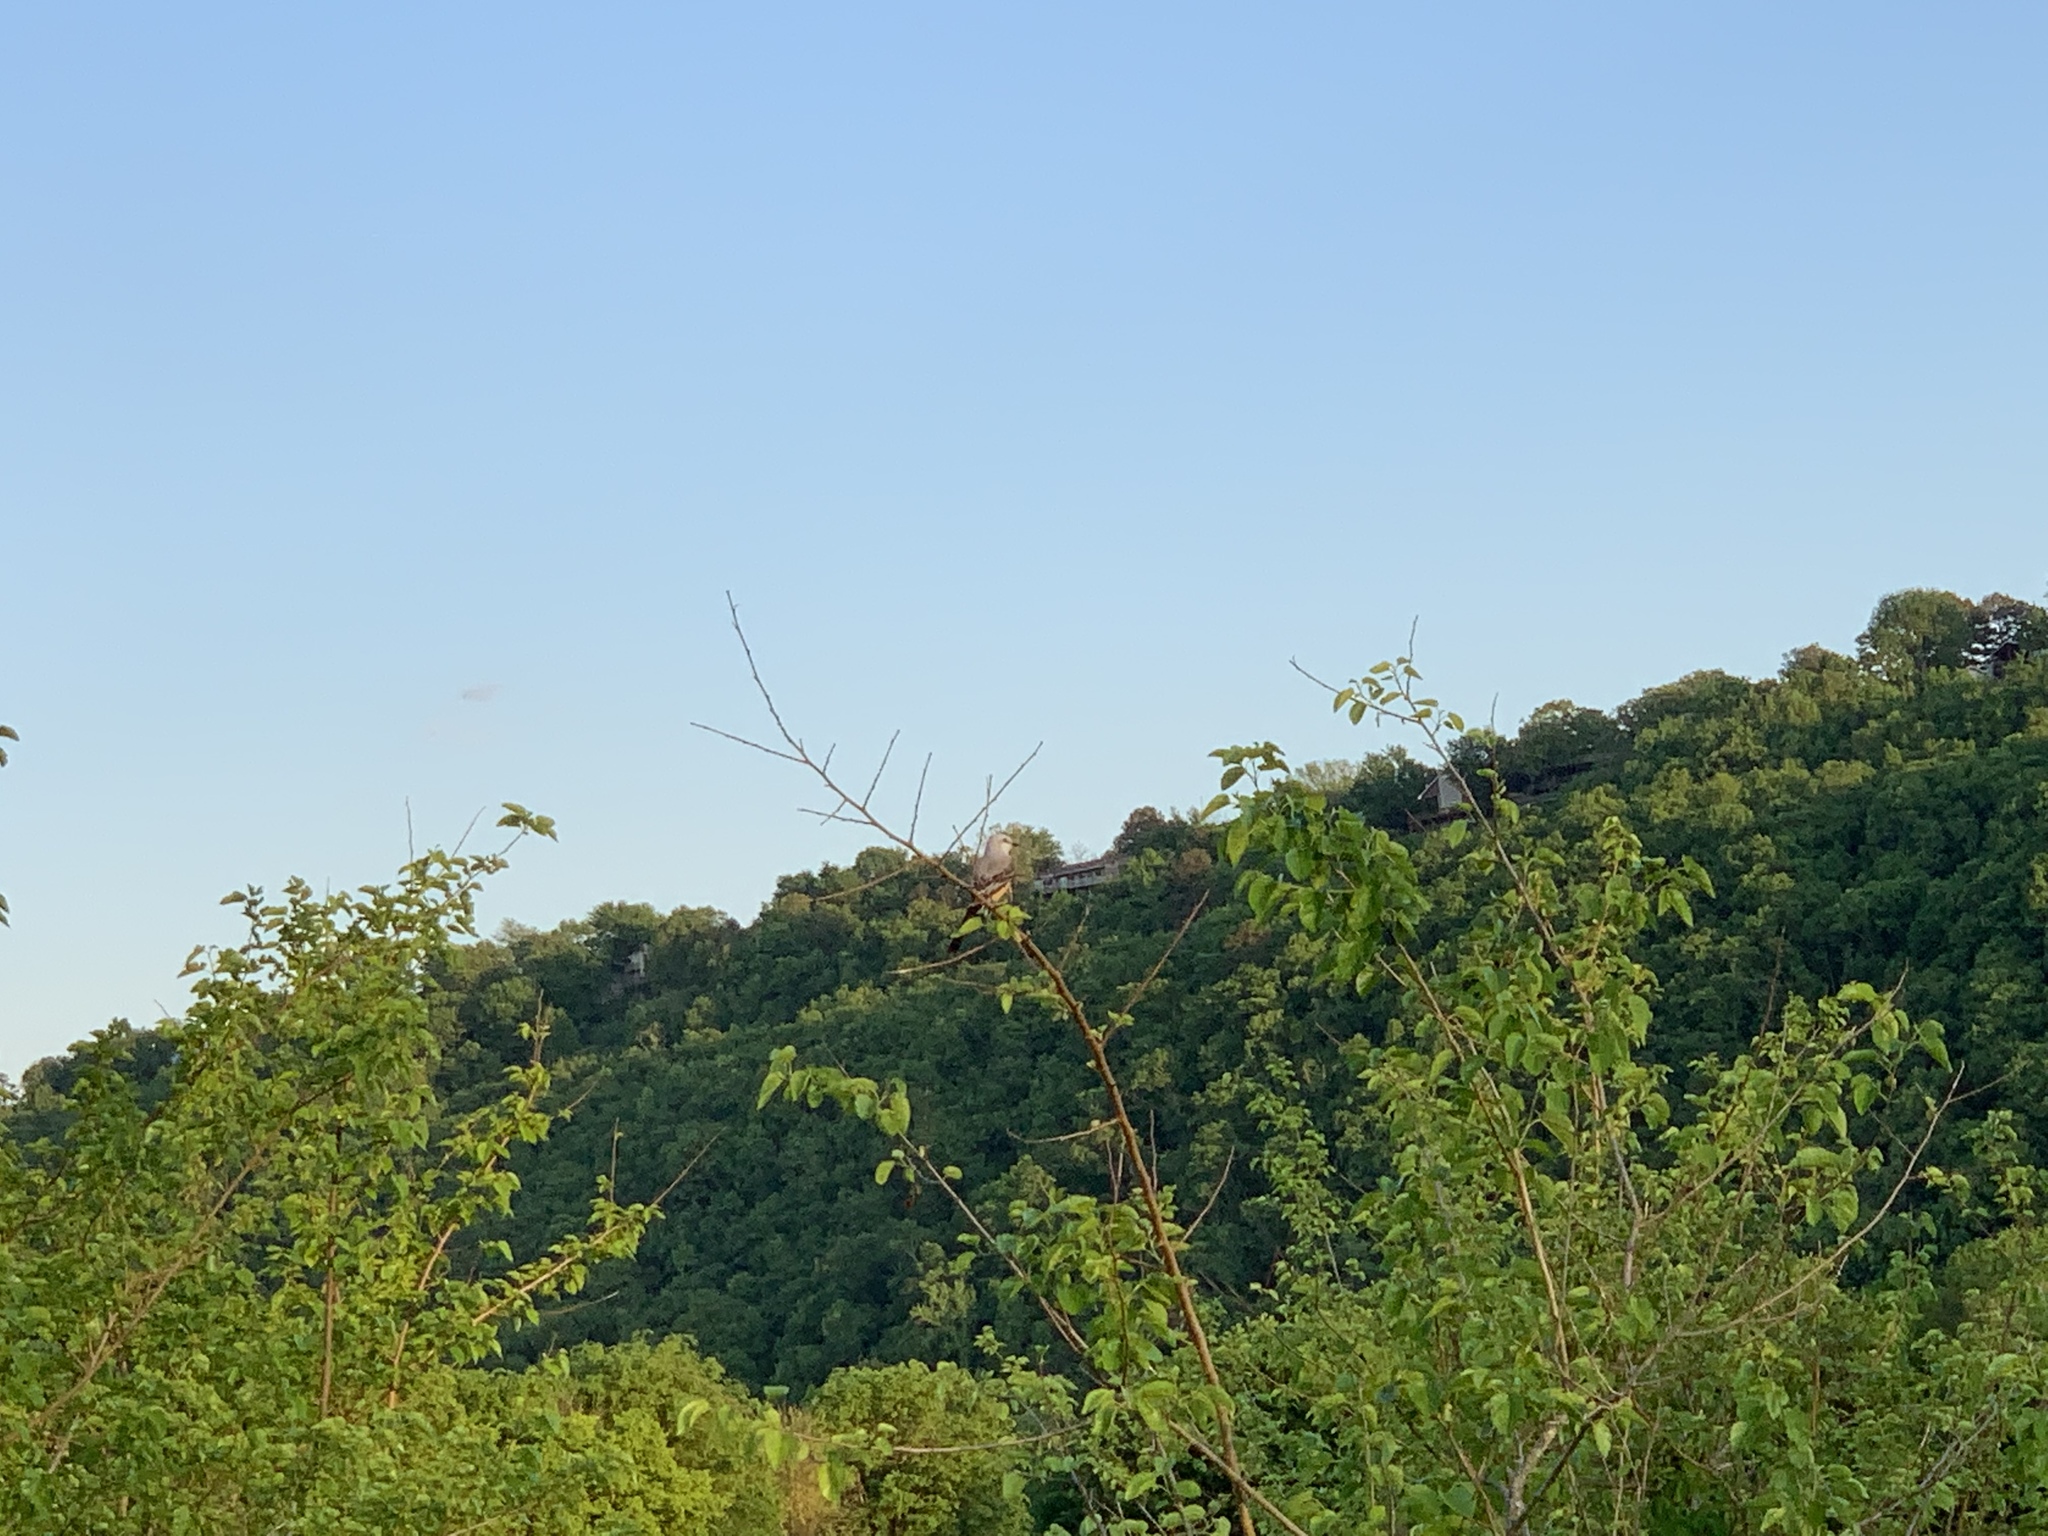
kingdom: Animalia
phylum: Chordata
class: Aves
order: Passeriformes
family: Tyrannidae
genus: Tyrannus
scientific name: Tyrannus forficatus
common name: Scissor-tailed flycatcher
